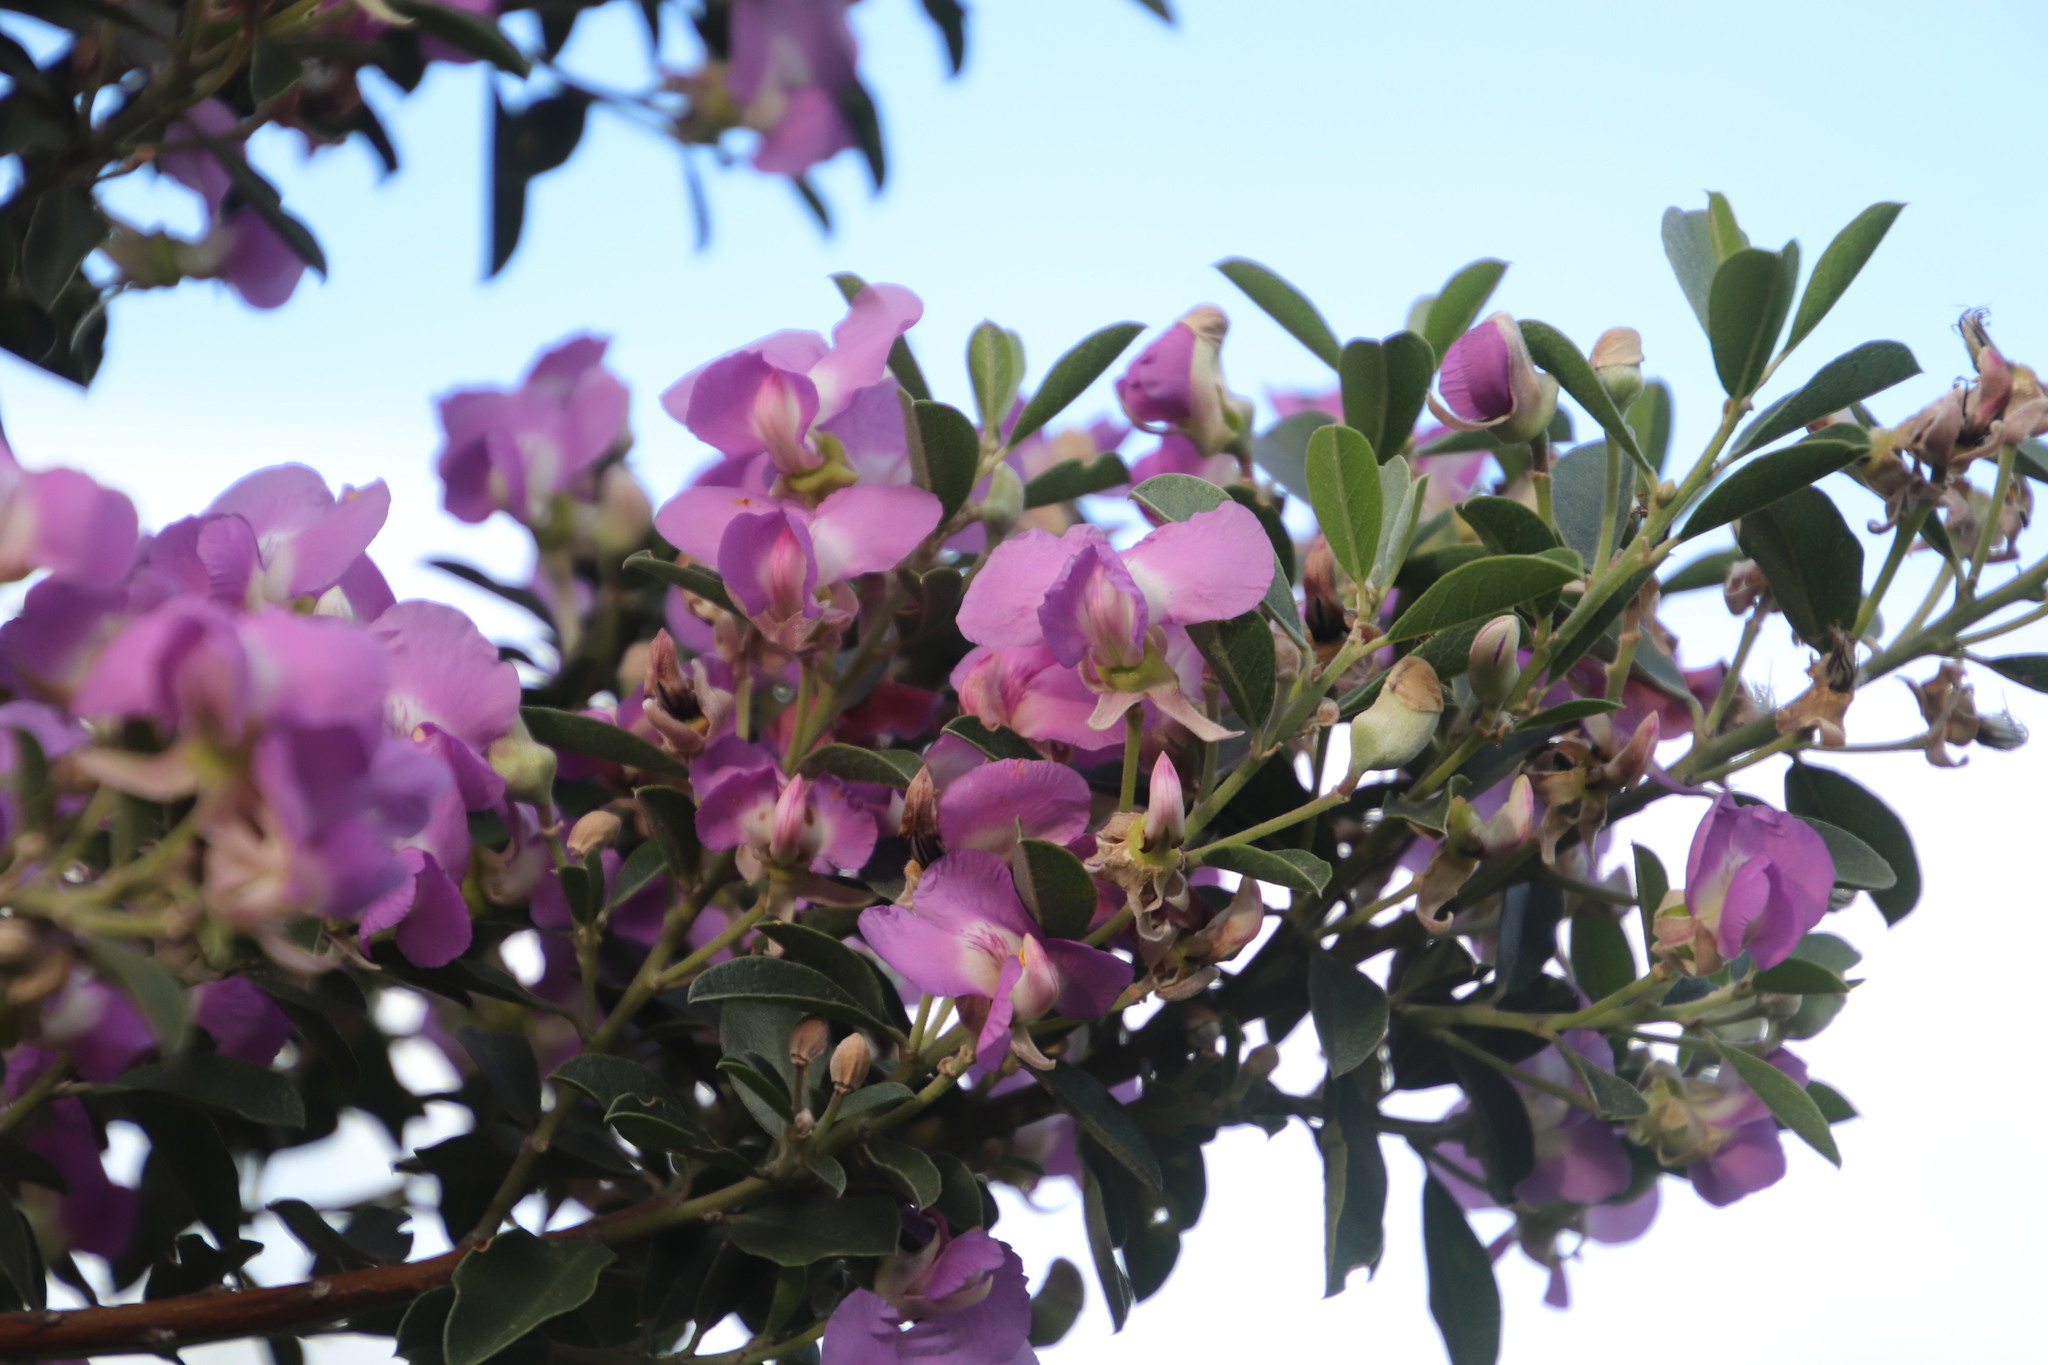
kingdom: Plantae
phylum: Tracheophyta
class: Magnoliopsida
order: Fabales
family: Fabaceae
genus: Podalyria
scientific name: Podalyria calyptrata
